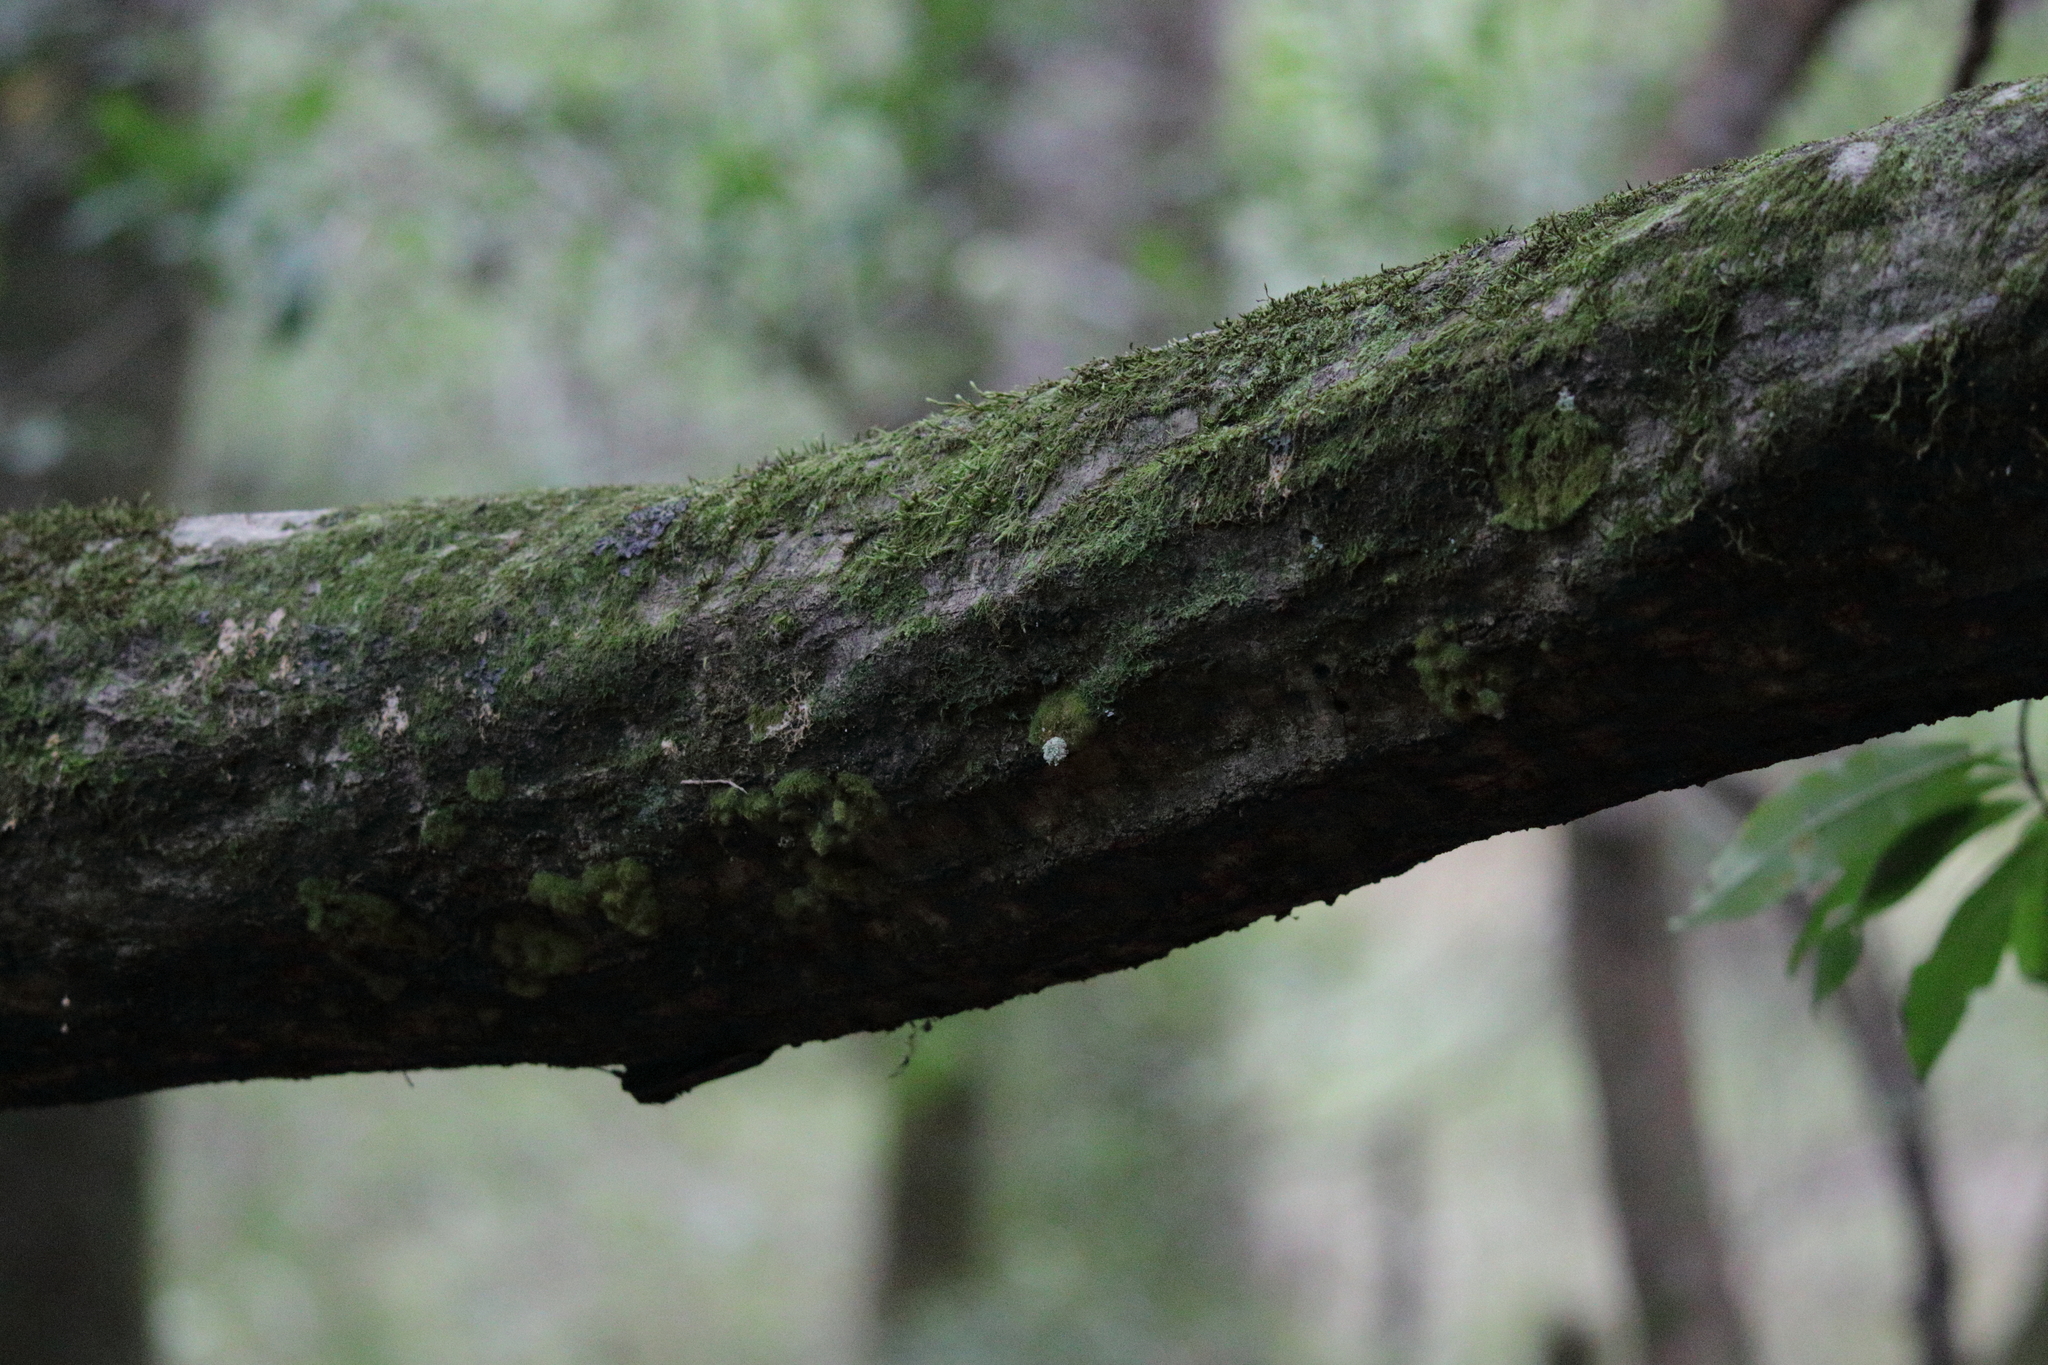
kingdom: Plantae
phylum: Tracheophyta
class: Magnoliopsida
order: Fagales
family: Betulaceae
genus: Carpinus
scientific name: Carpinus caroliniana
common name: American hornbeam
